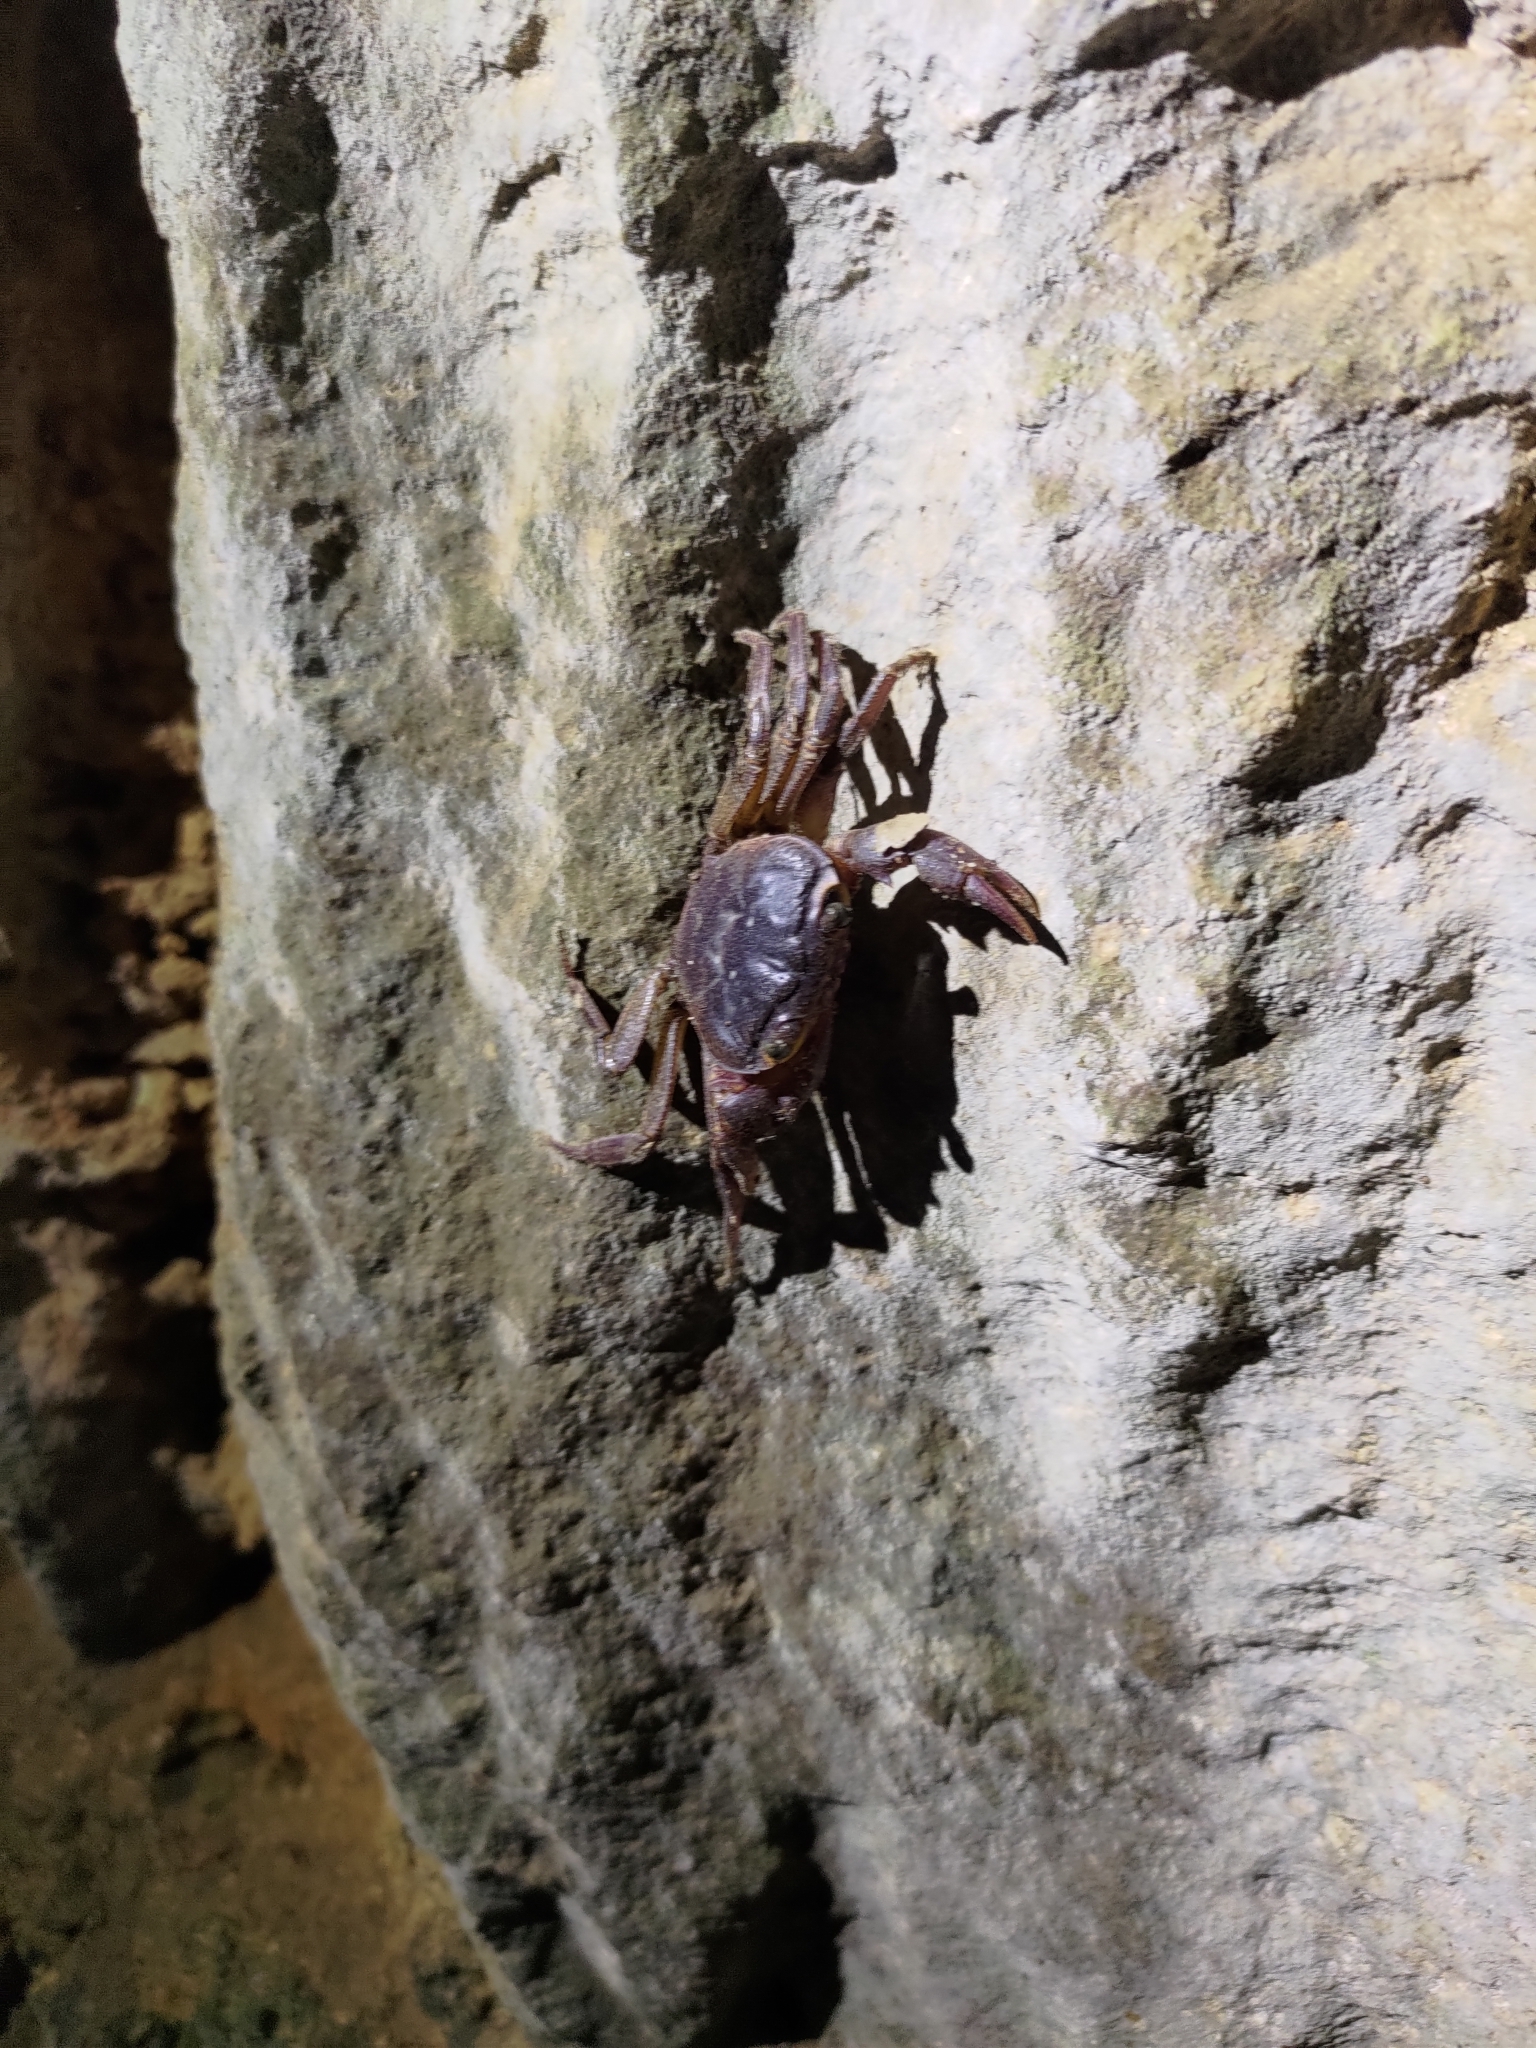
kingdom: Animalia
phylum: Arthropoda
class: Malacostraca
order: Decapoda
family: Potamidae
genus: Candidiopotamon
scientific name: Candidiopotamon rathbuni
